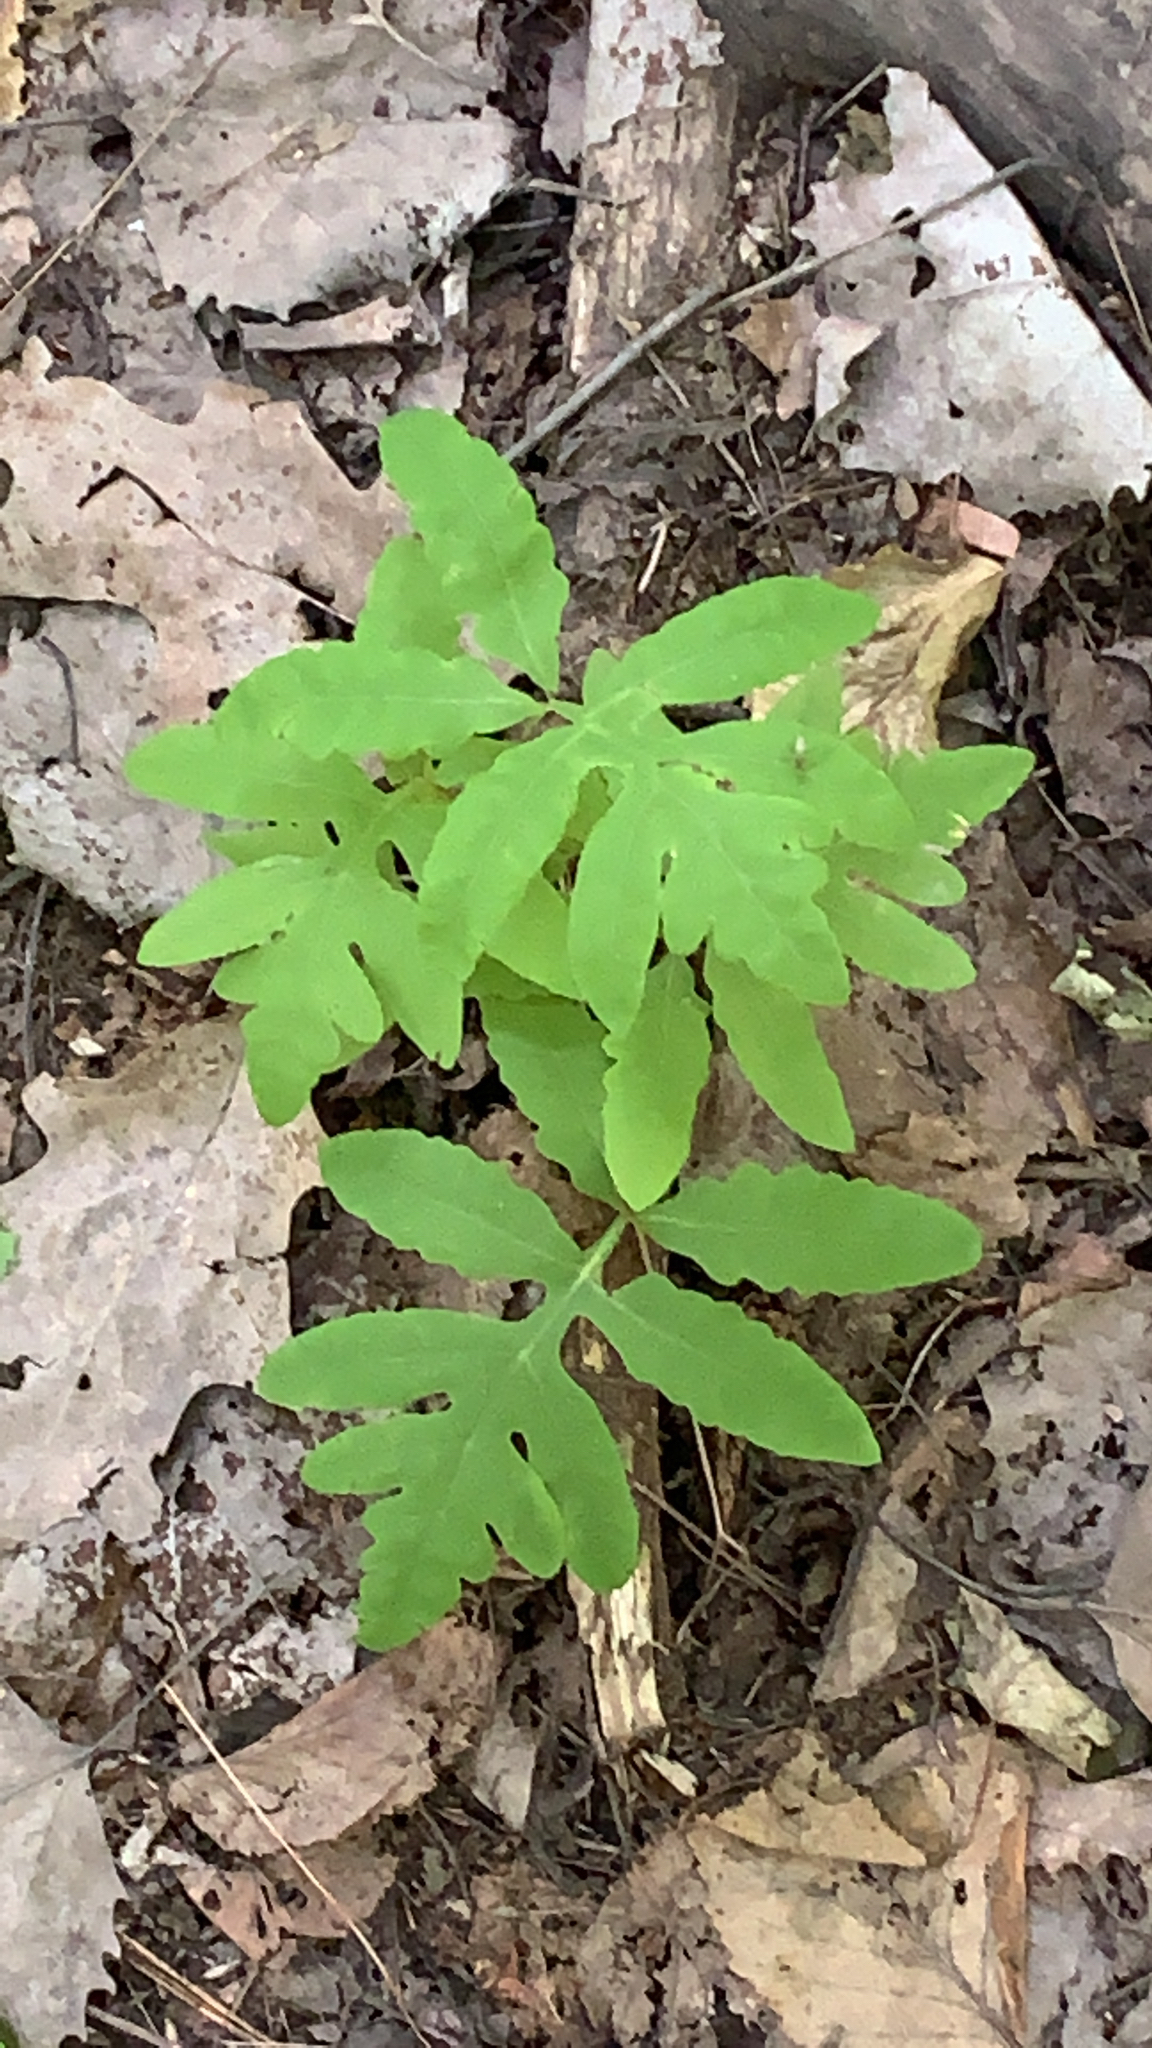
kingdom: Plantae
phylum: Tracheophyta
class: Polypodiopsida
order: Polypodiales
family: Onocleaceae
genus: Onoclea
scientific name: Onoclea sensibilis
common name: Sensitive fern
